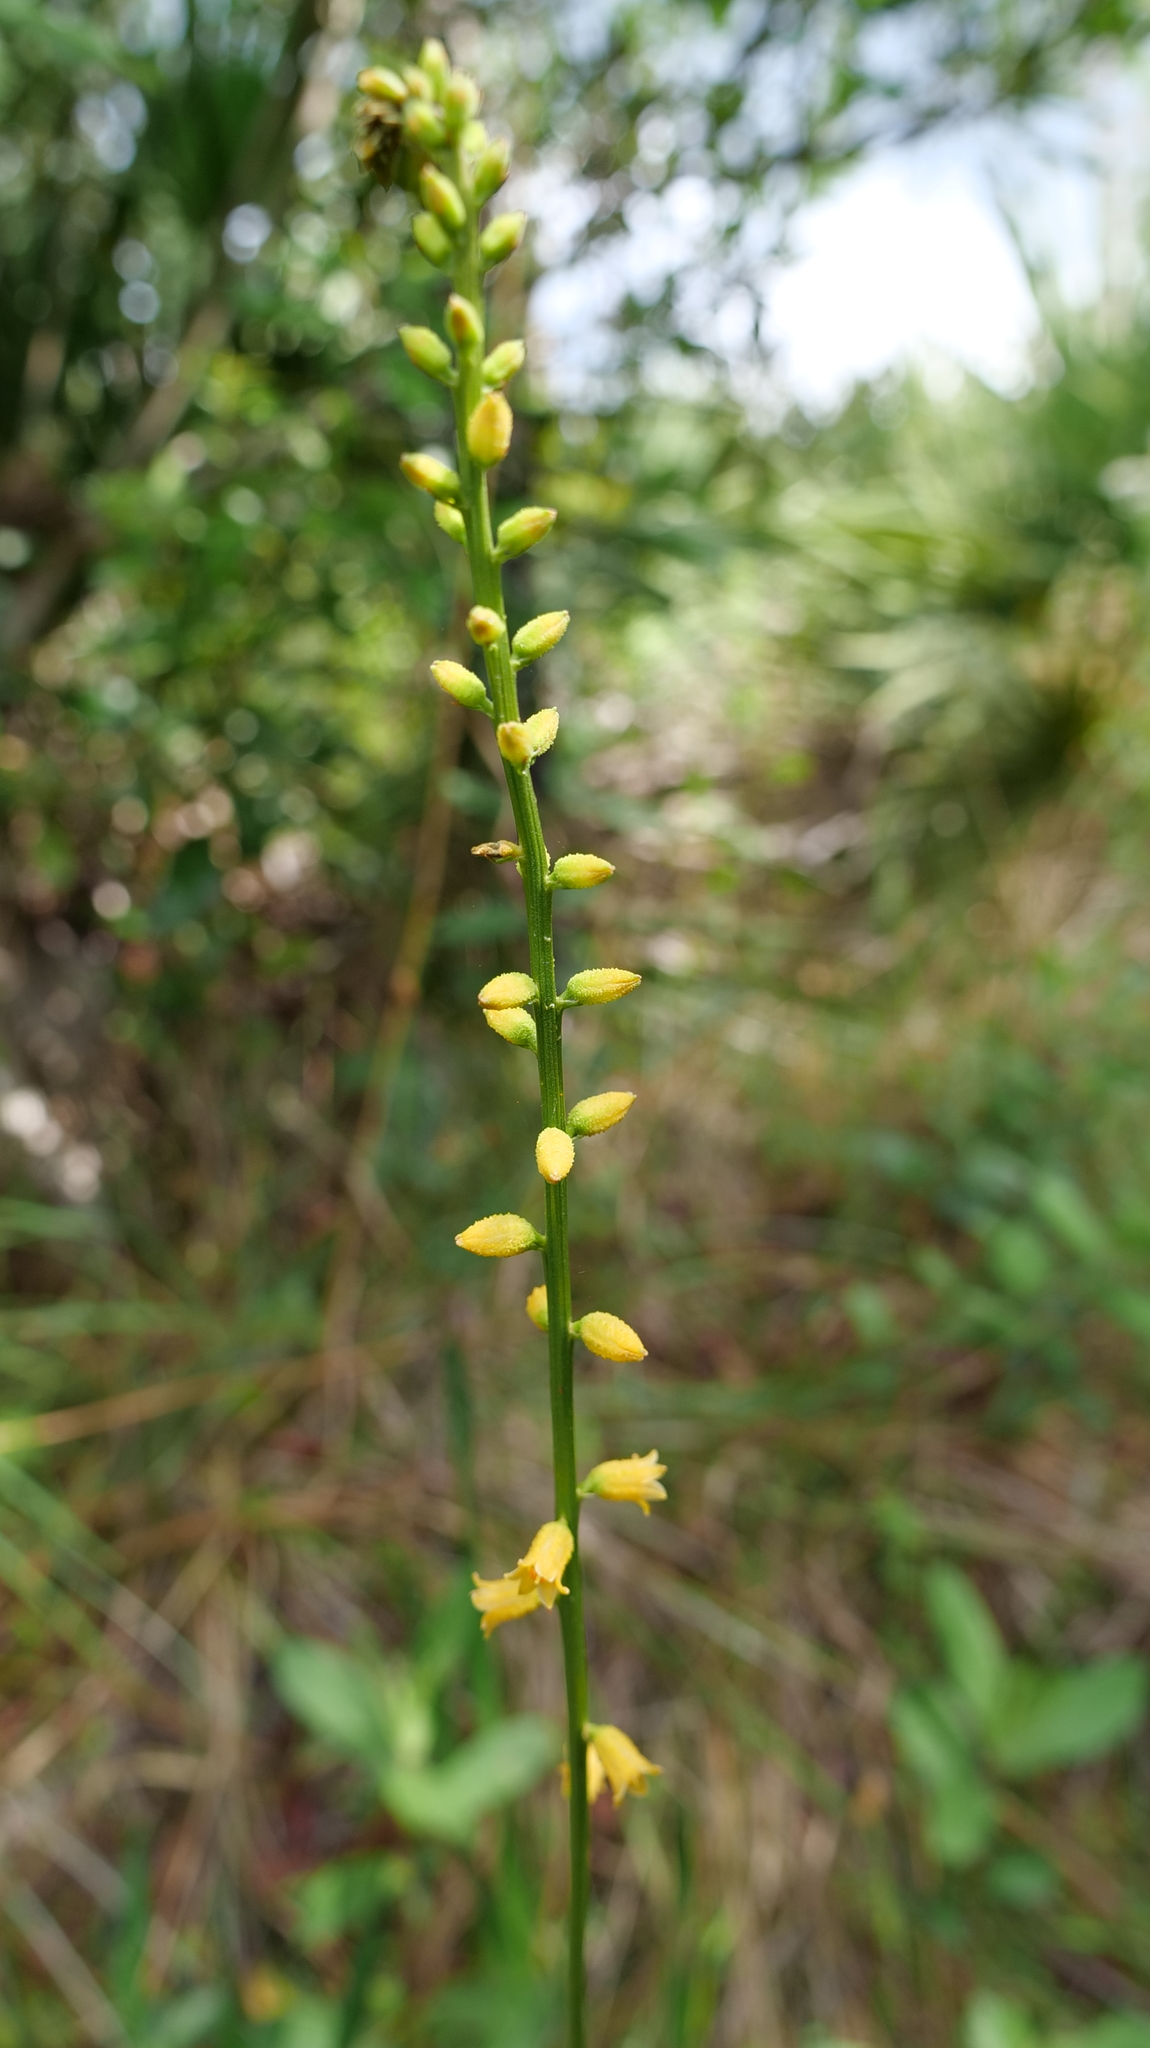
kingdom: Plantae
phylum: Tracheophyta
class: Liliopsida
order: Dioscoreales
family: Nartheciaceae
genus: Aletris
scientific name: Aletris lutea
